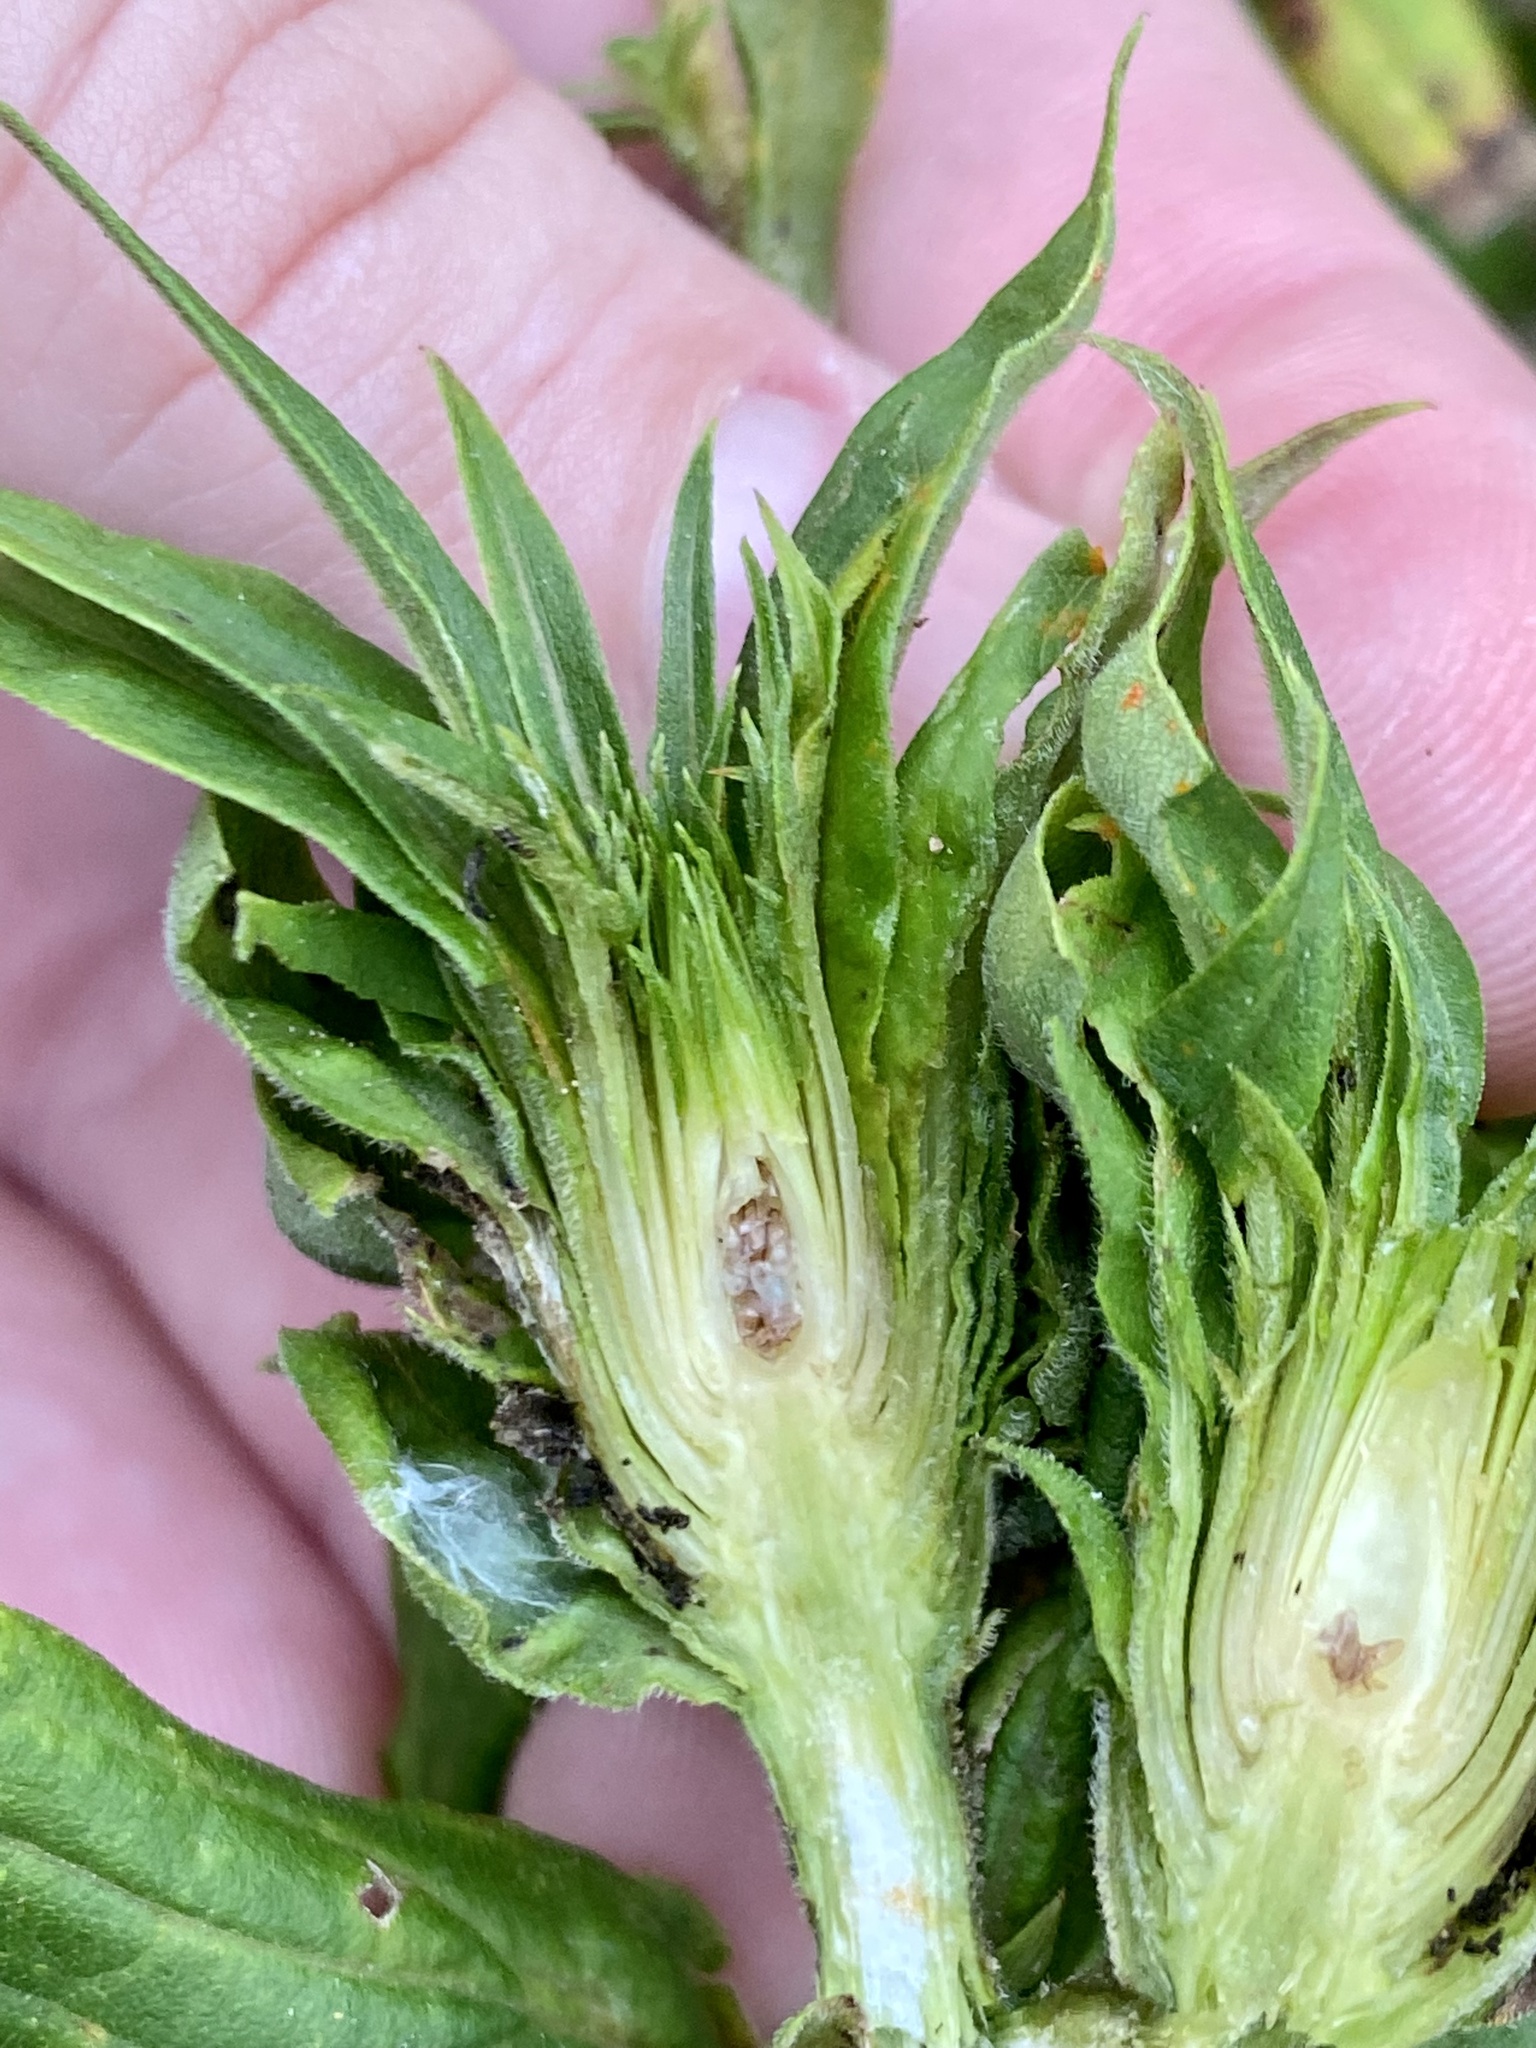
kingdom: Animalia
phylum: Arthropoda
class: Insecta
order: Diptera
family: Cecidomyiidae
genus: Rhopalomyia
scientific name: Rhopalomyia solidaginis
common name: Goldenrod bunch gall midge
